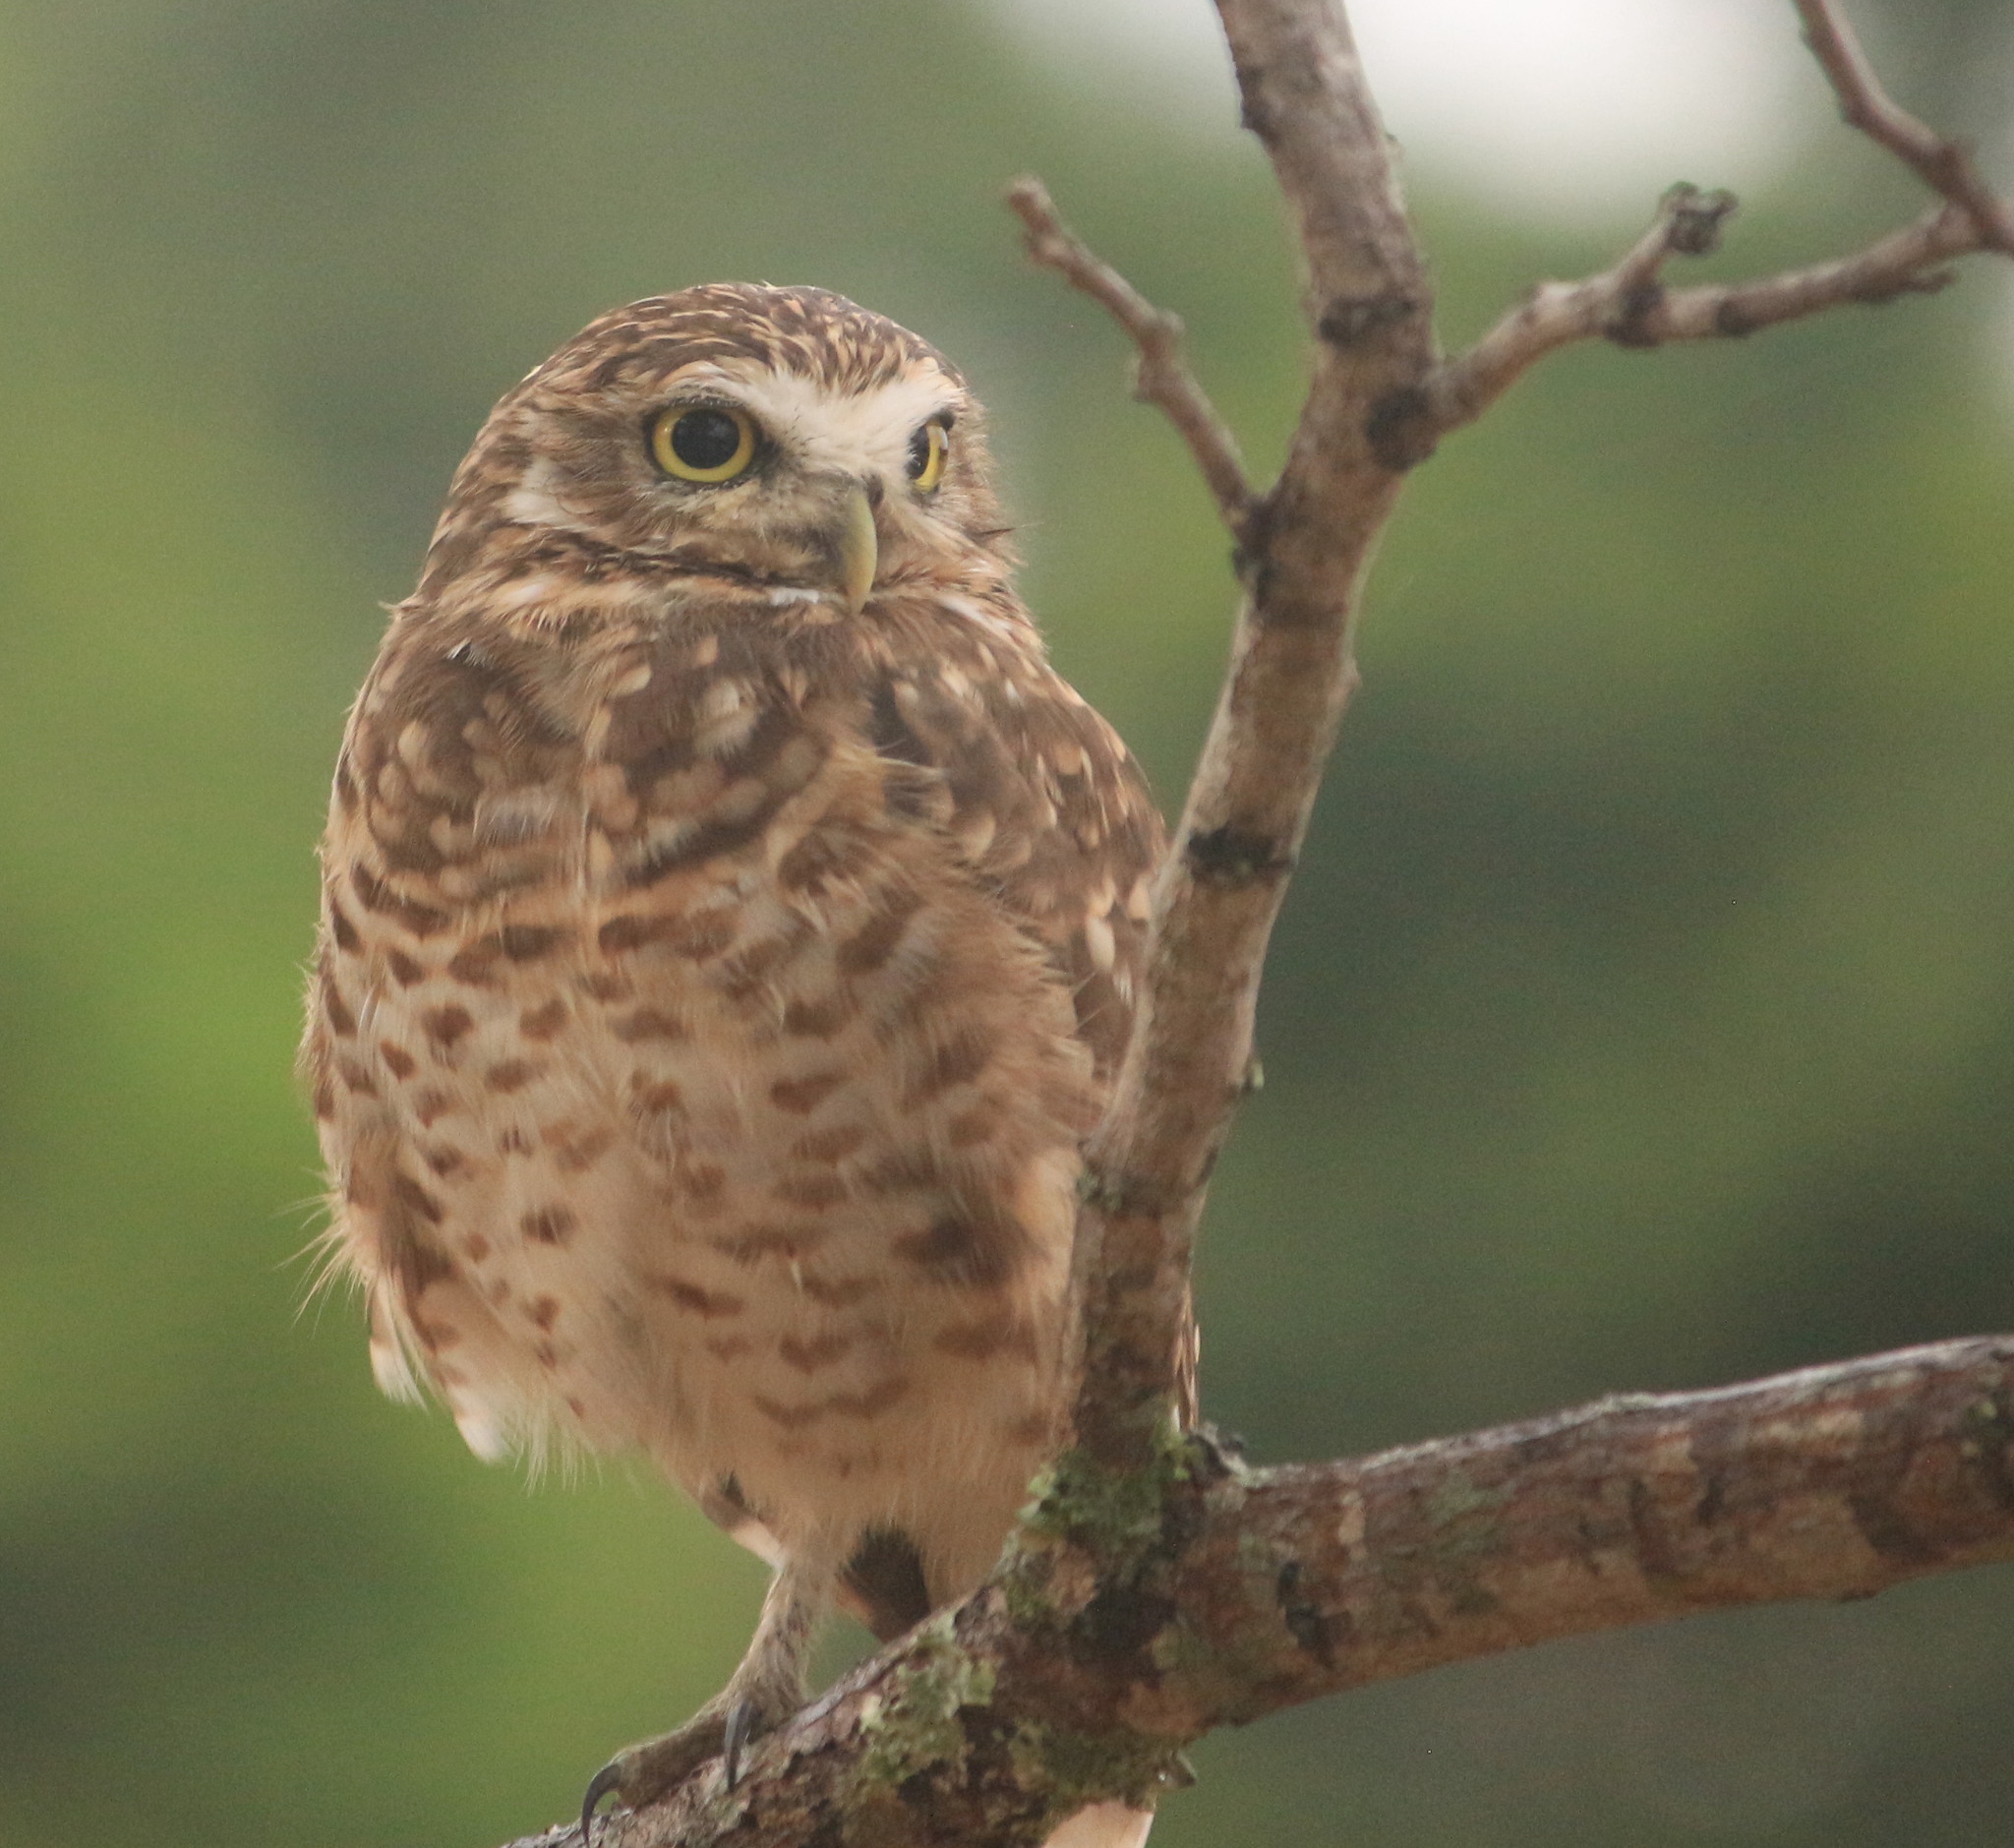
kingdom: Animalia
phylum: Chordata
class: Aves
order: Strigiformes
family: Strigidae
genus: Athene
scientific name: Athene cunicularia
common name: Burrowing owl
